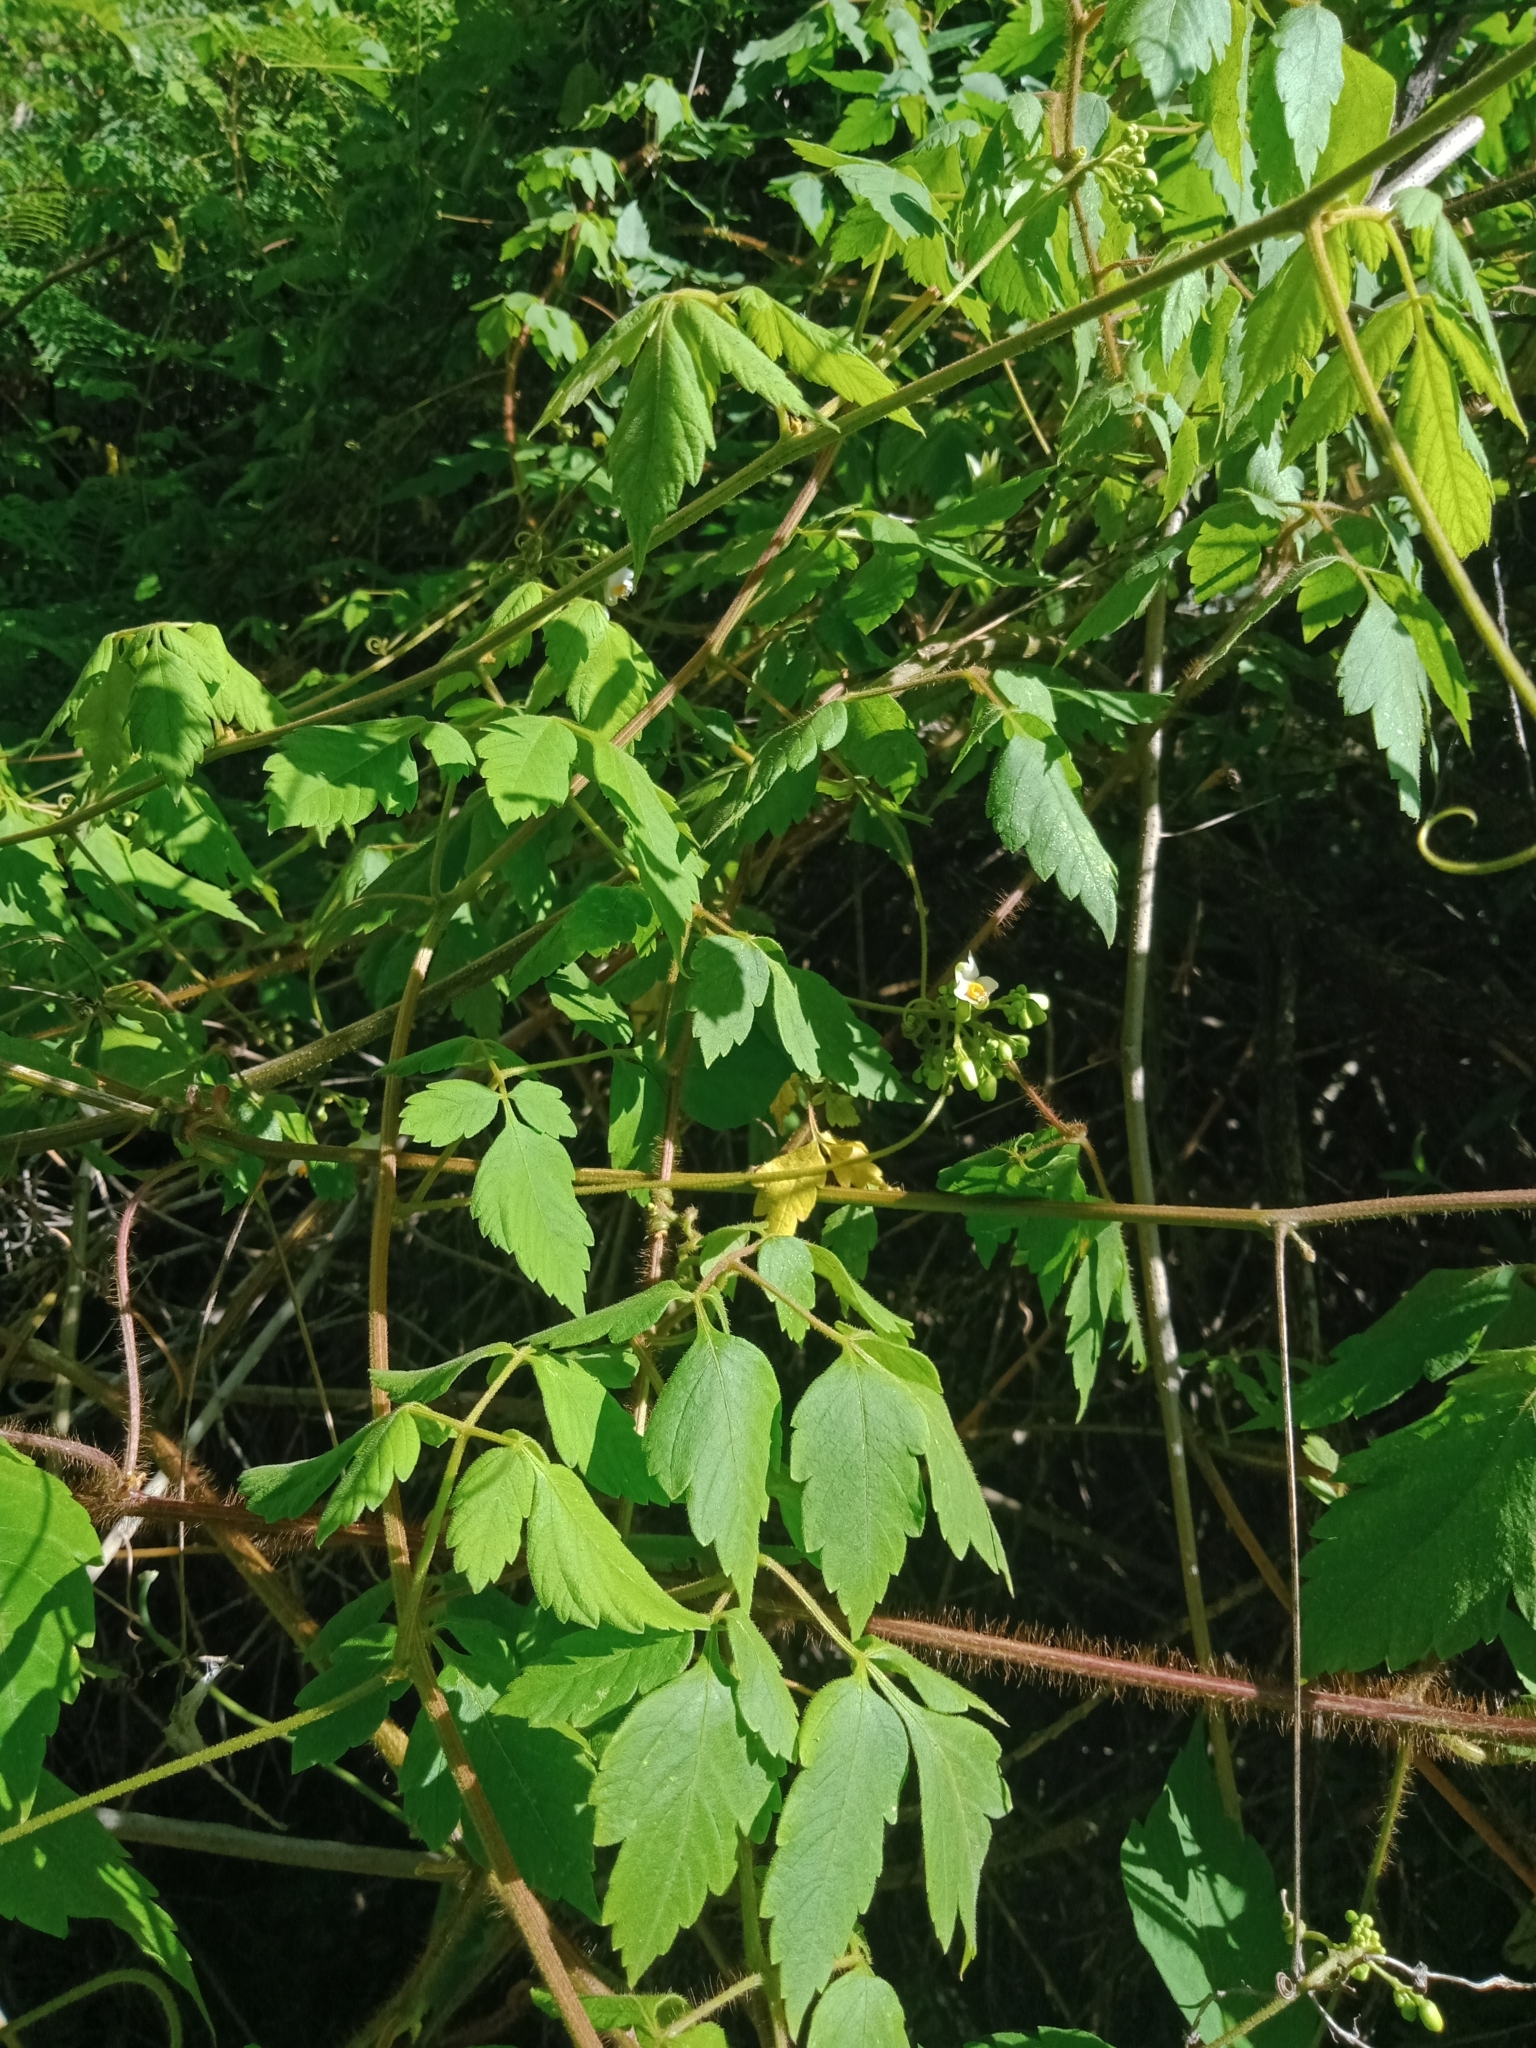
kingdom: Plantae
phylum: Tracheophyta
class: Magnoliopsida
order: Sapindales
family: Sapindaceae
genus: Cardiospermum
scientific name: Cardiospermum grandiflorum
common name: Balloon vine
